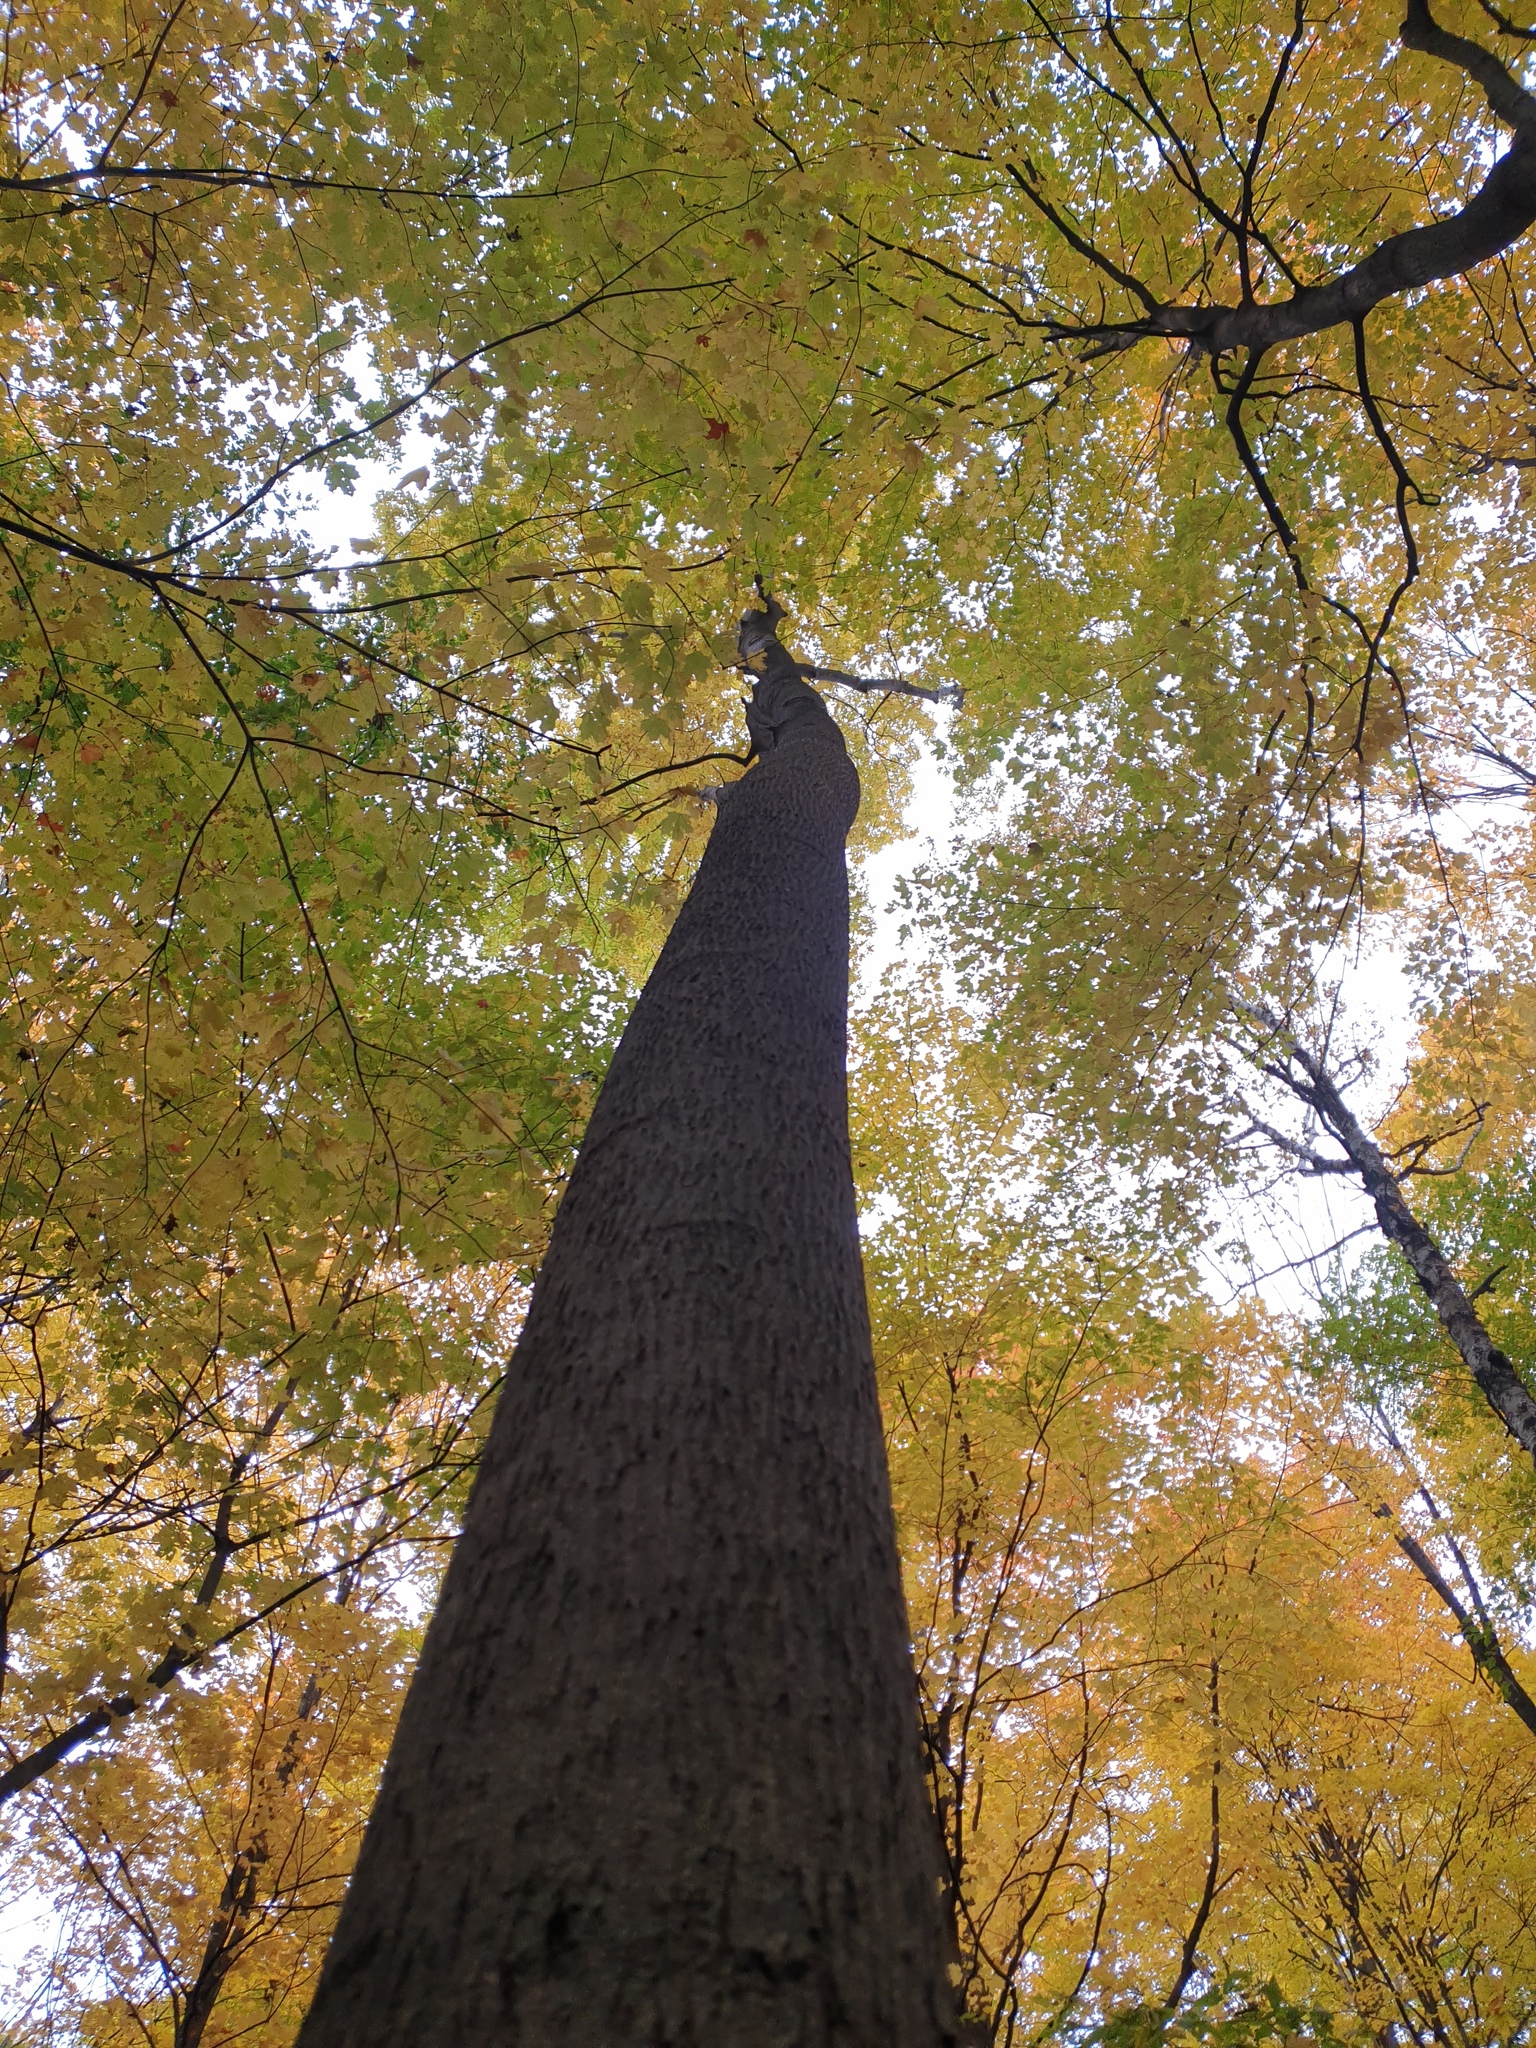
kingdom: Plantae
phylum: Tracheophyta
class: Magnoliopsida
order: Fagales
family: Juglandaceae
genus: Carya
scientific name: Carya cordiformis
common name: Bitternut hickory
